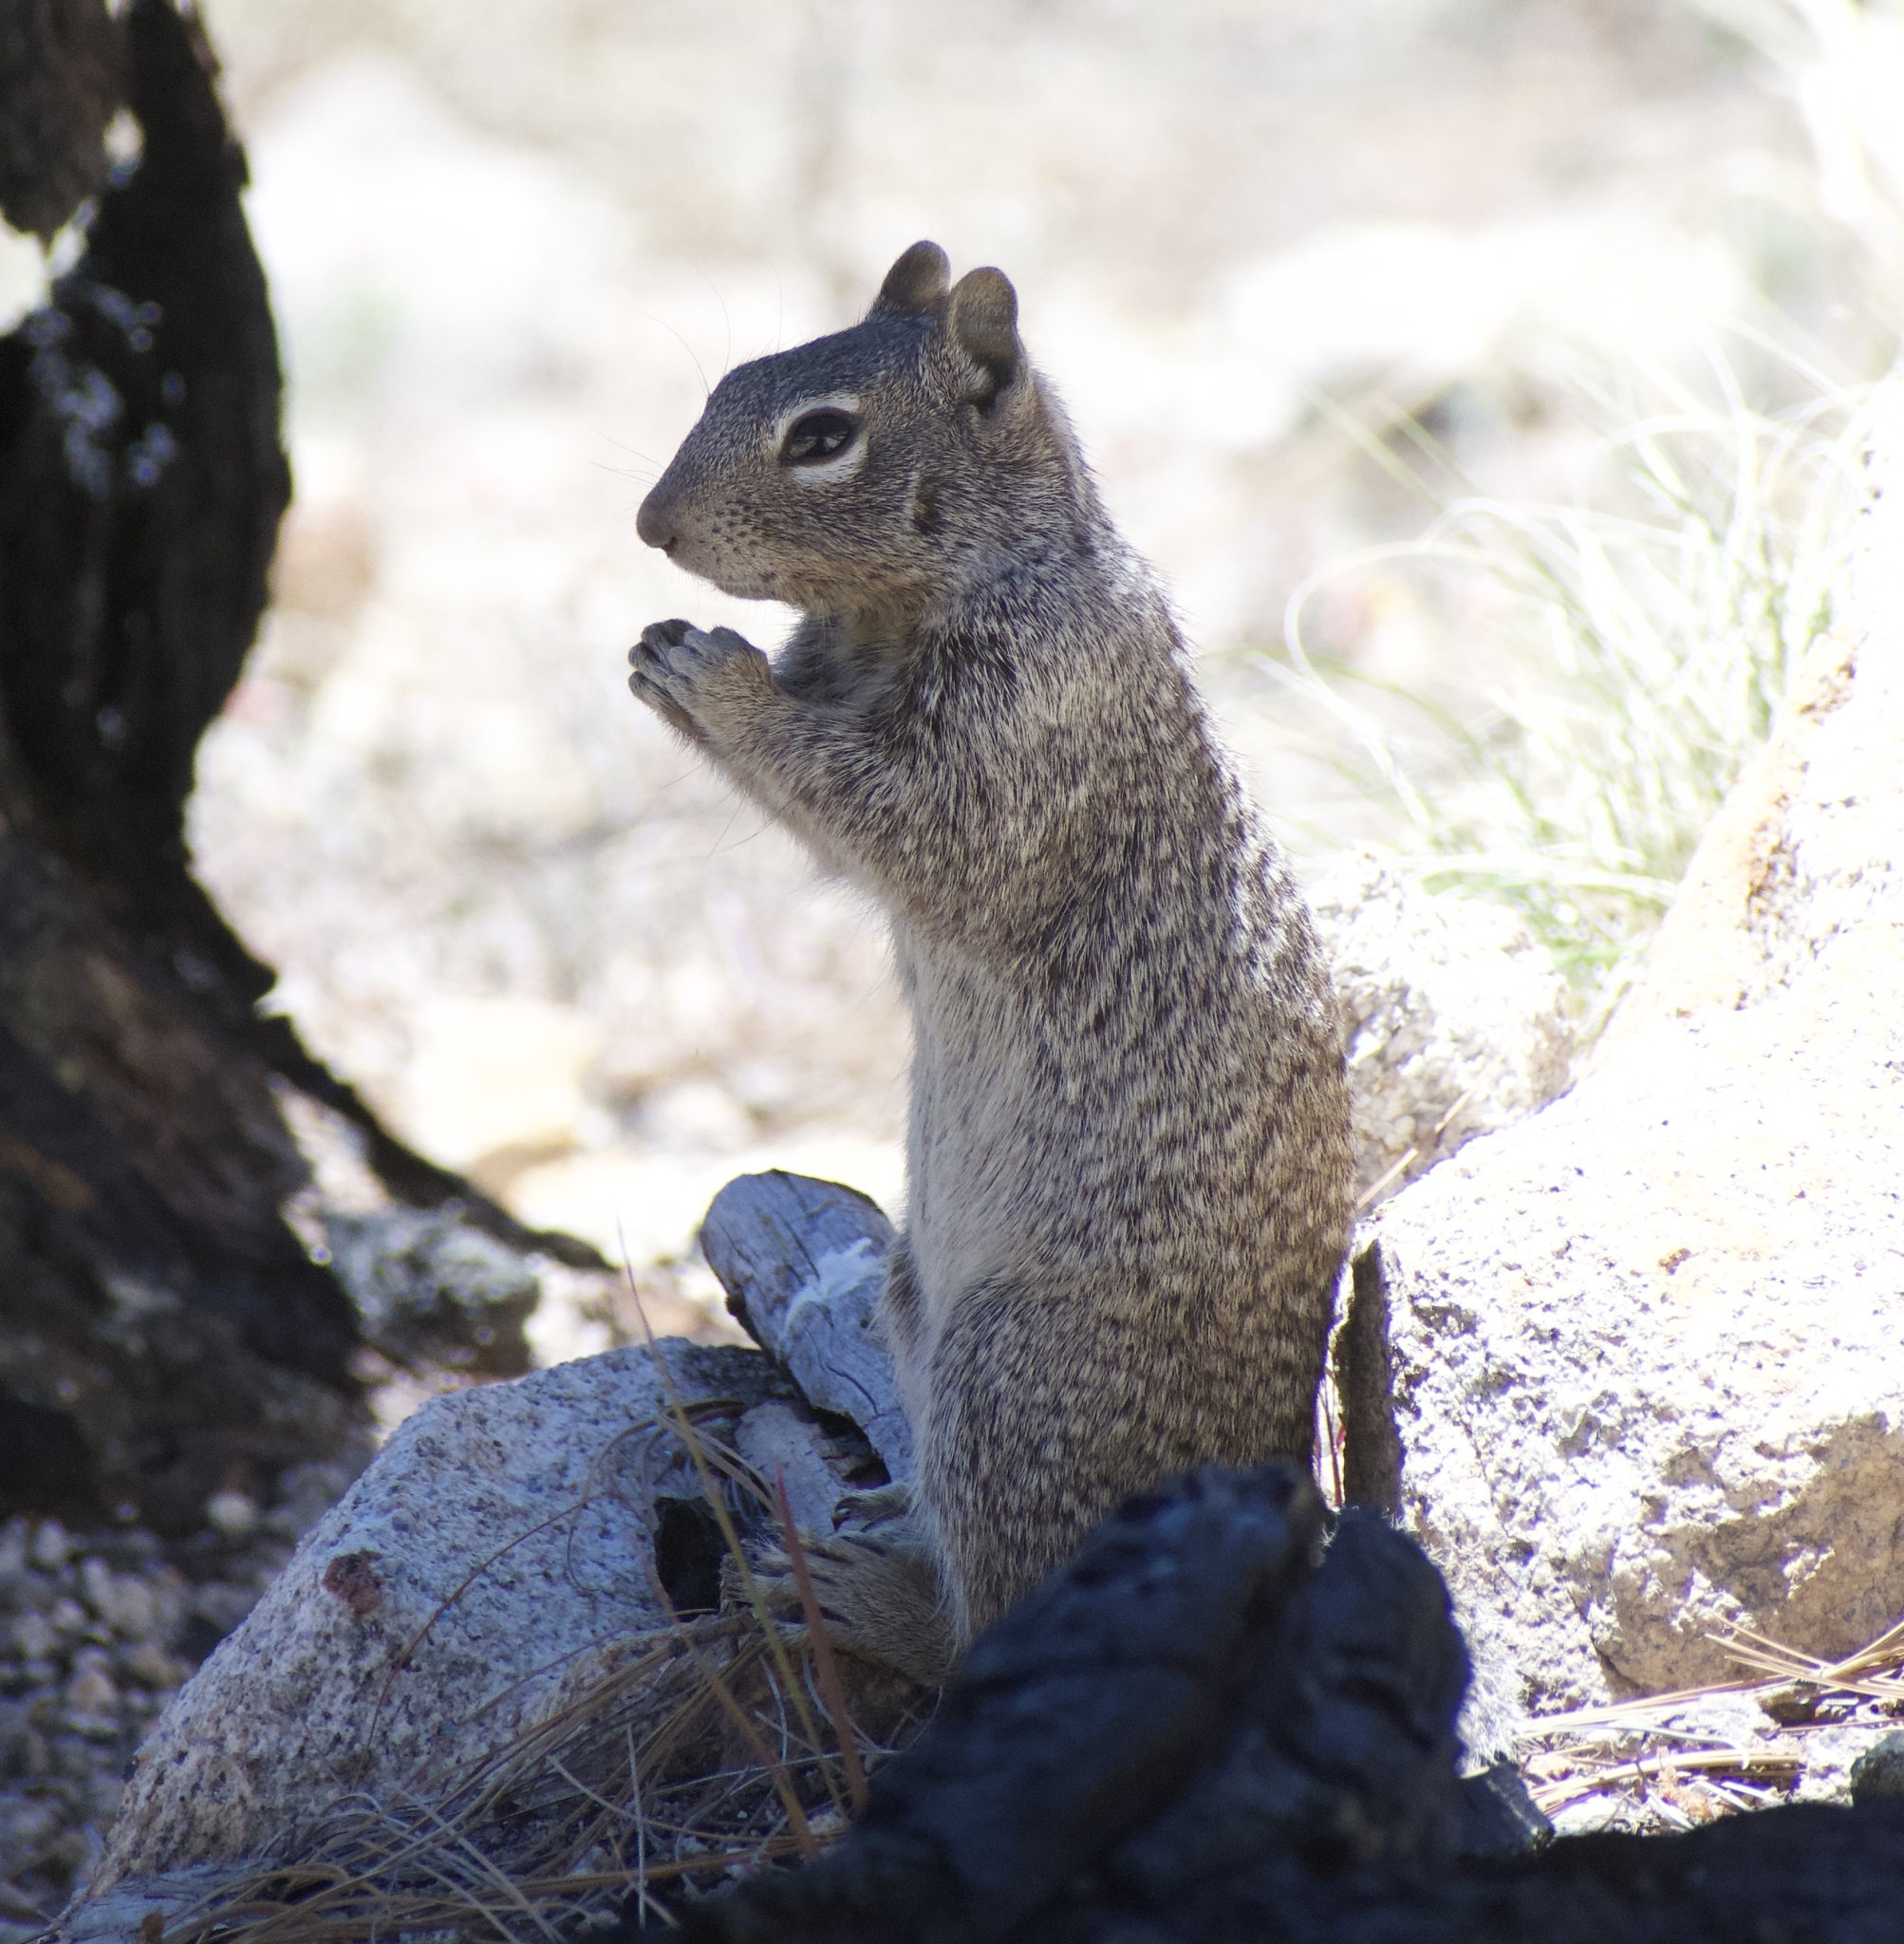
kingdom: Animalia
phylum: Chordata
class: Mammalia
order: Rodentia
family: Sciuridae
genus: Otospermophilus
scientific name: Otospermophilus variegatus
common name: Rock squirrel
